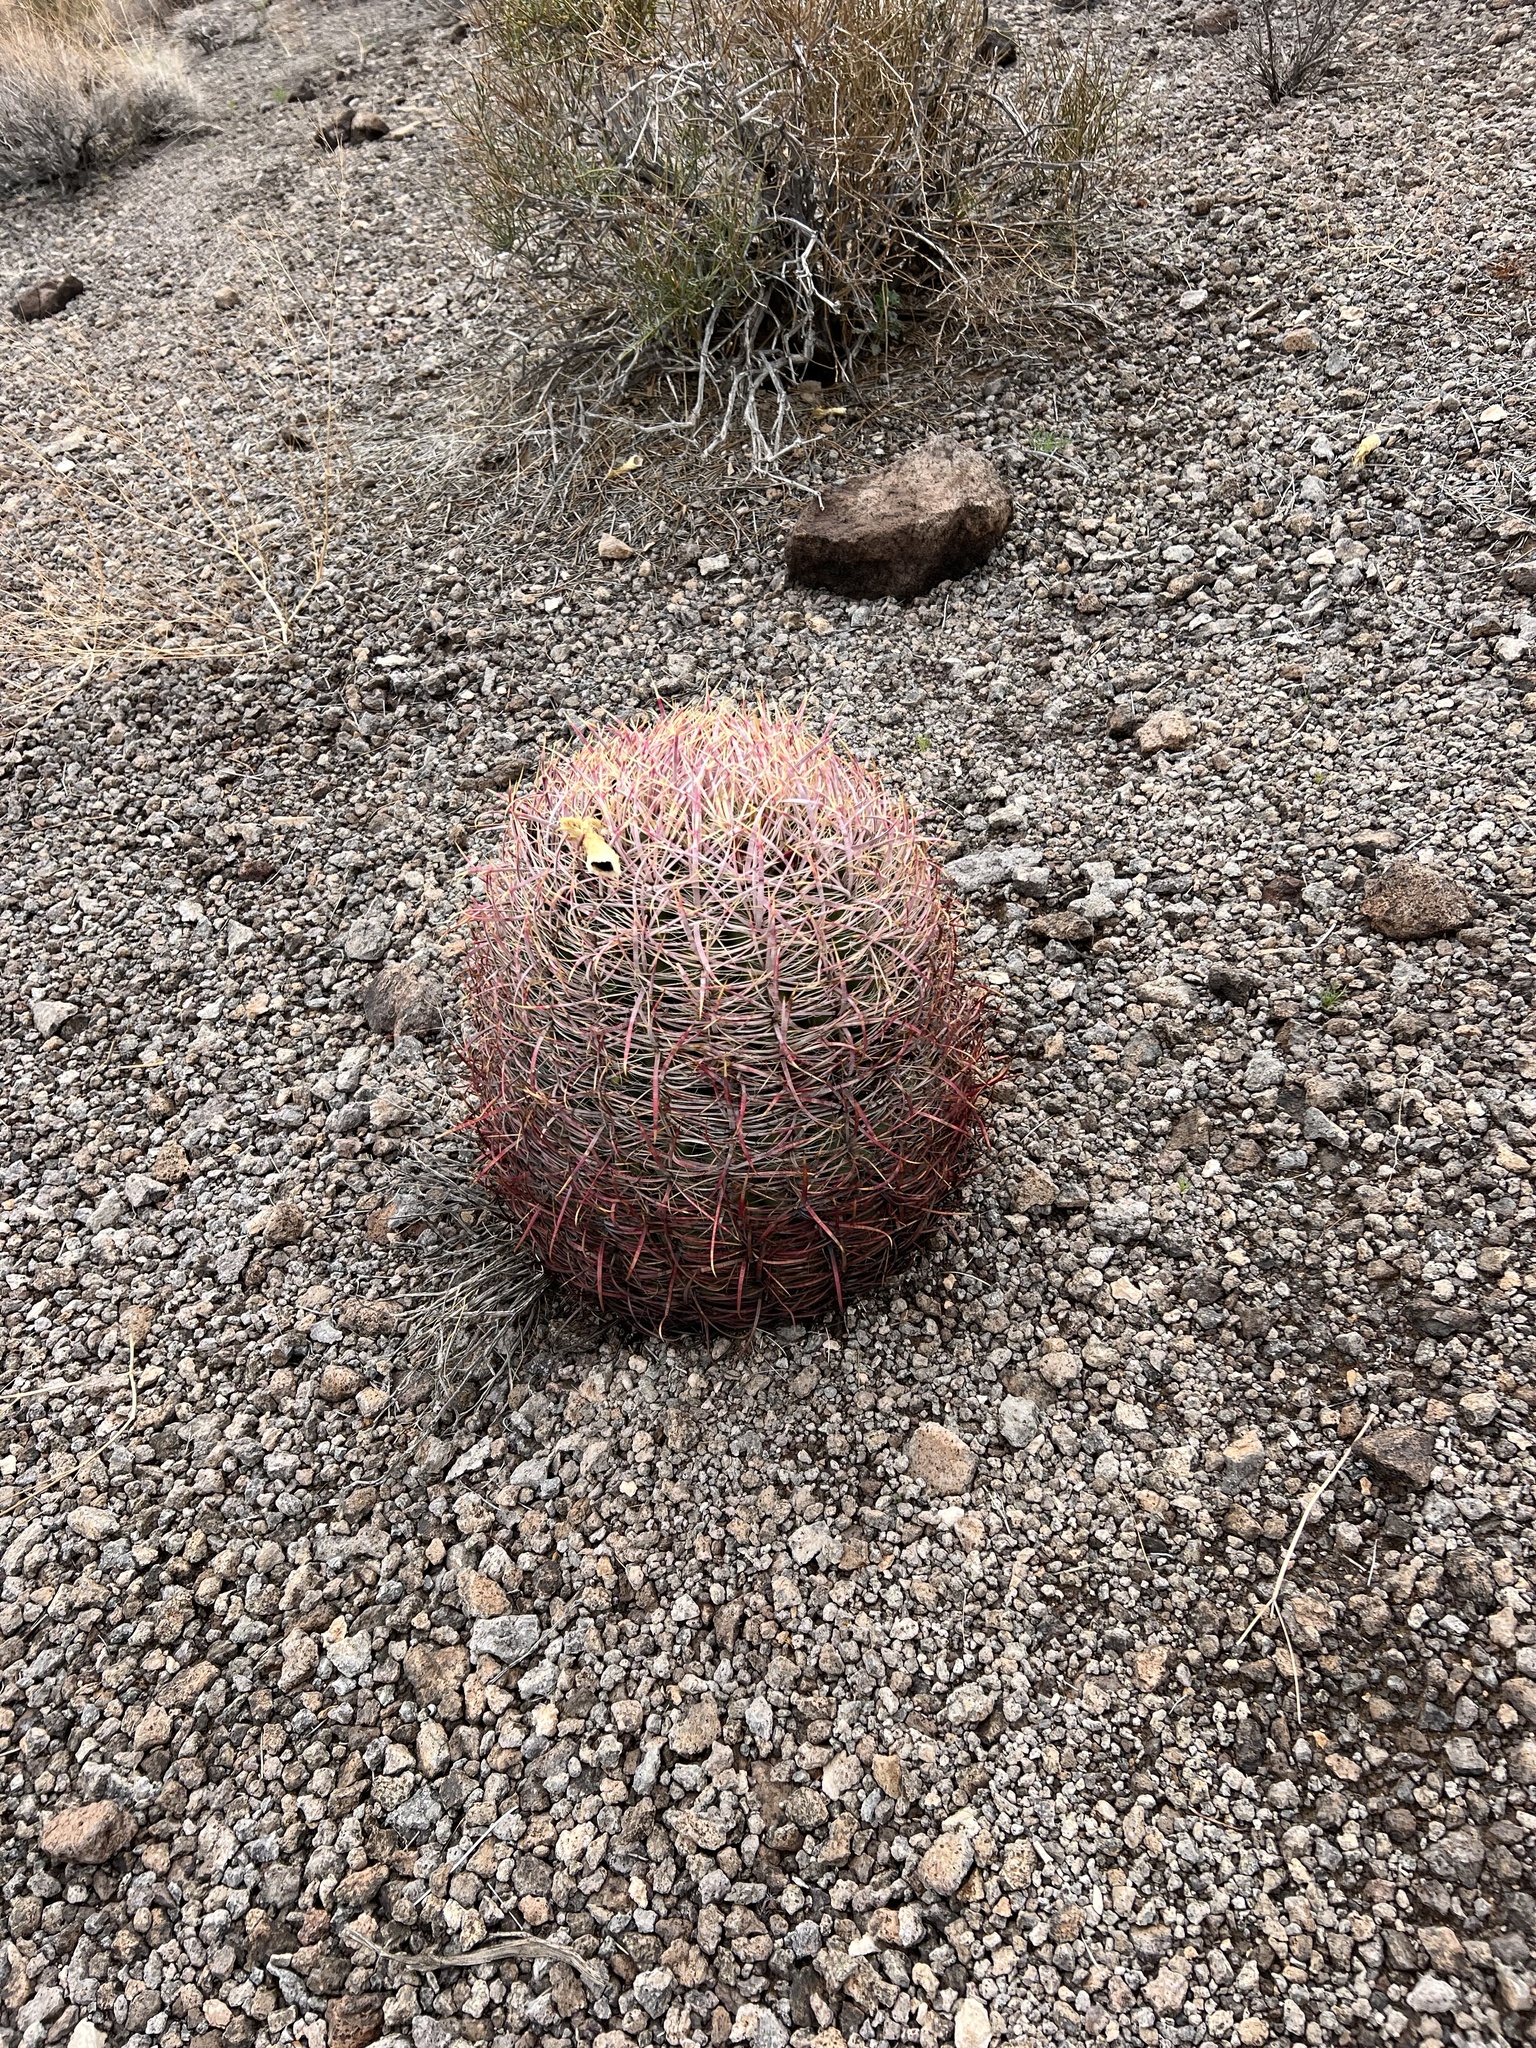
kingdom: Plantae
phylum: Tracheophyta
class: Magnoliopsida
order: Caryophyllales
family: Cactaceae
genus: Ferocactus
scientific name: Ferocactus cylindraceus
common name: California barrel cactus
